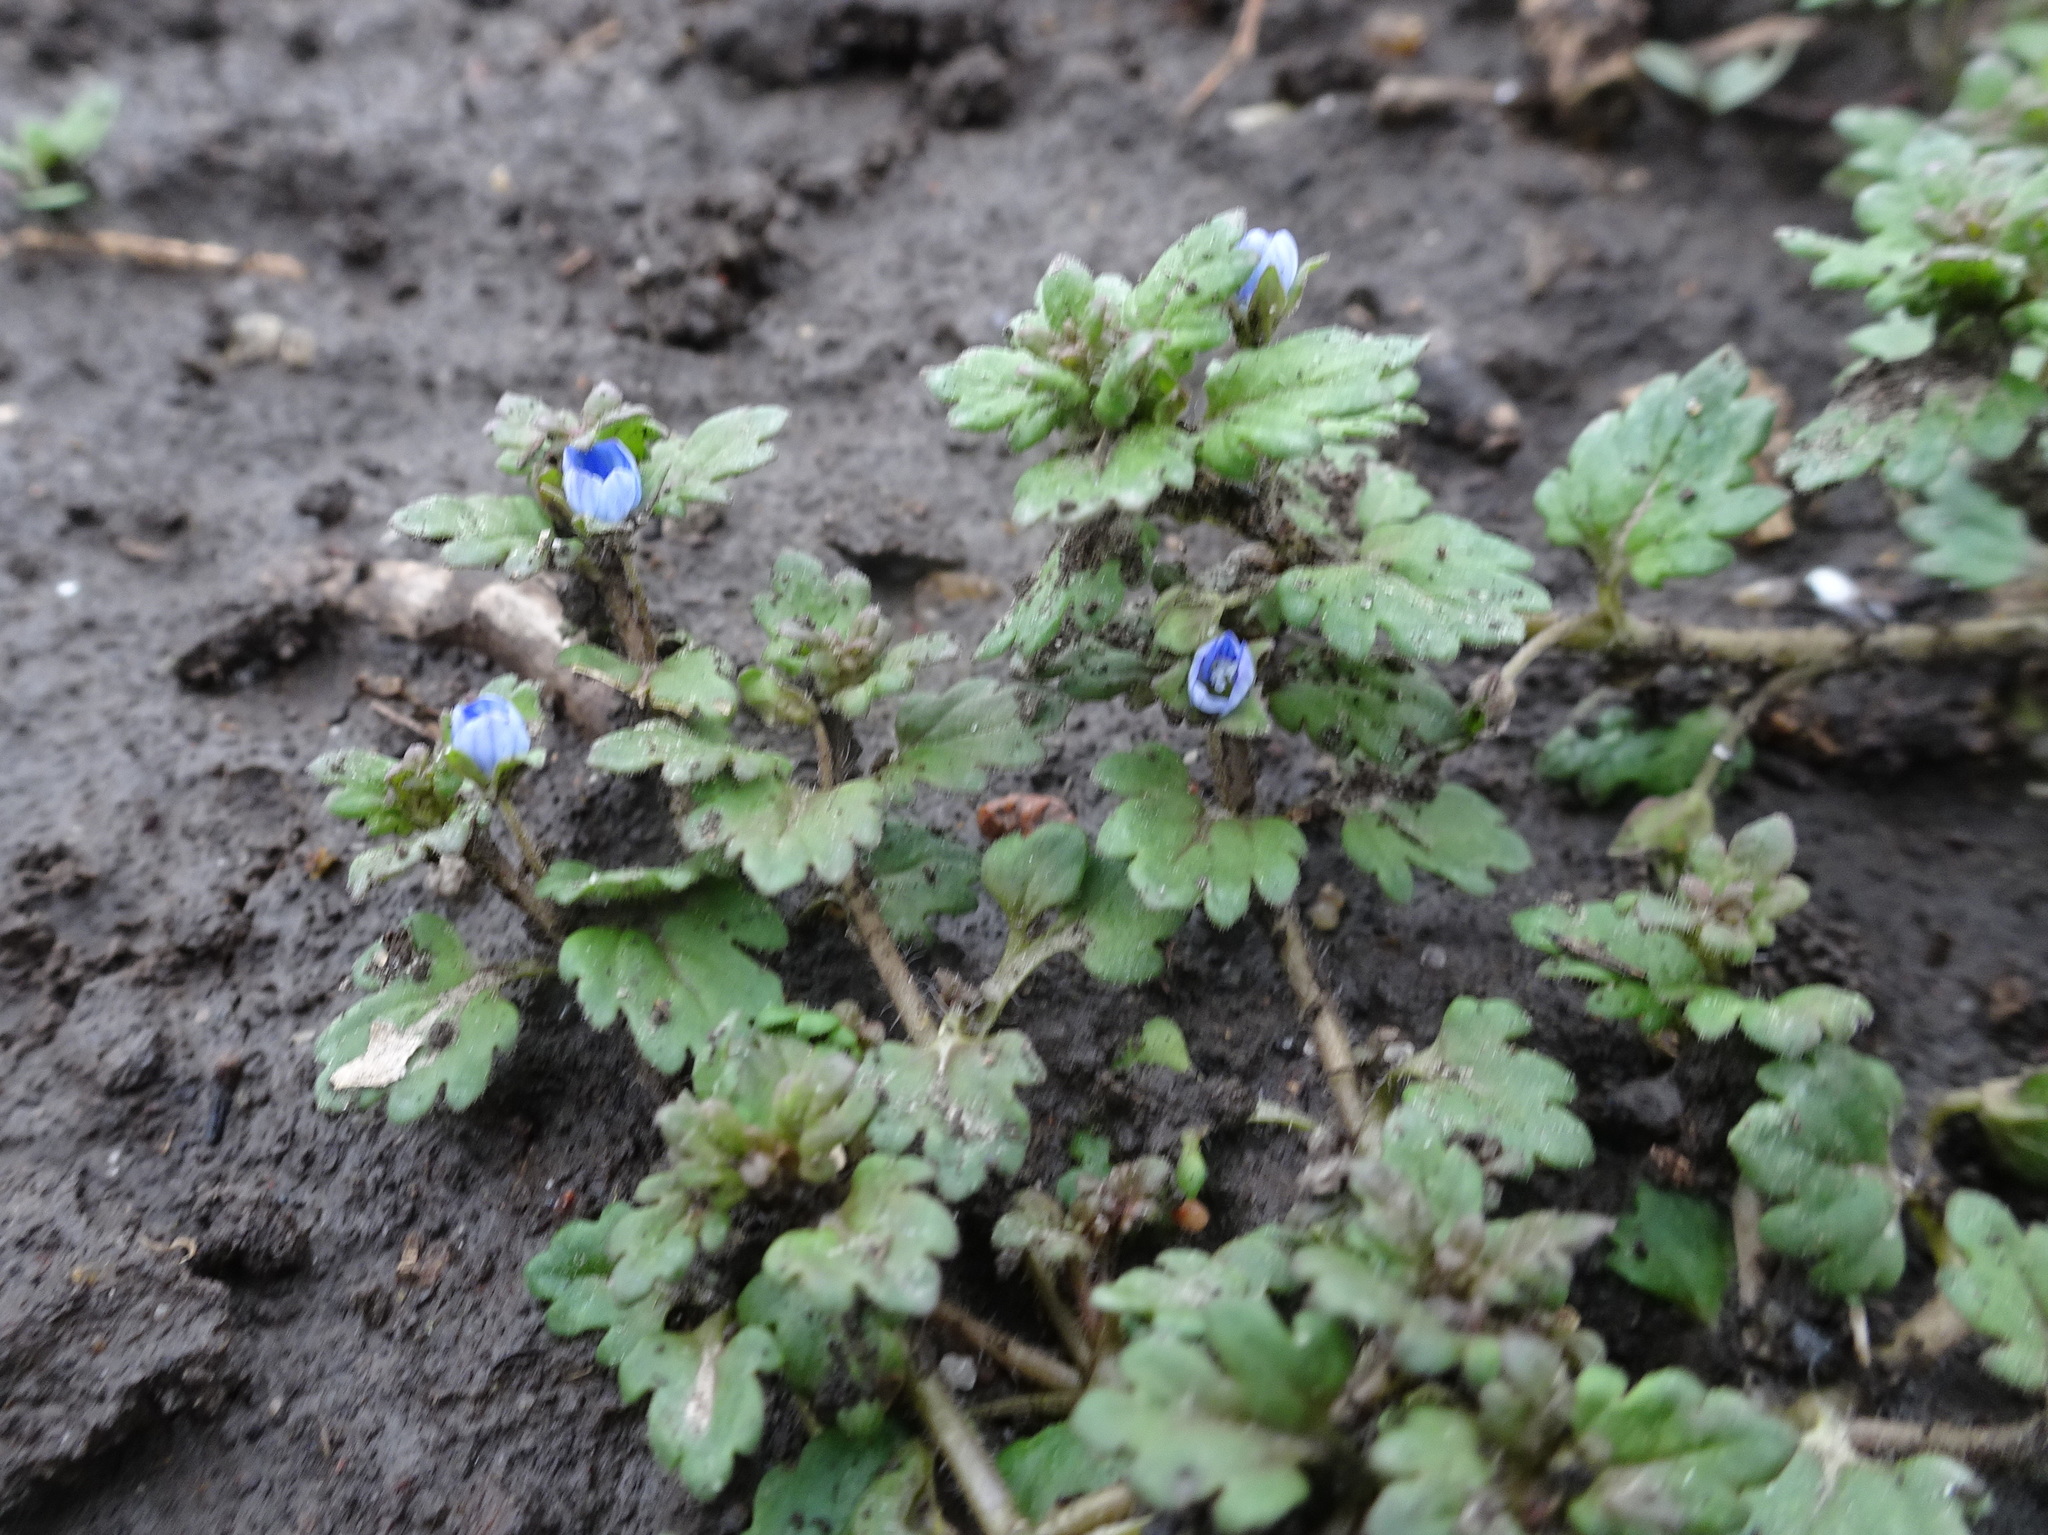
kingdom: Plantae
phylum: Tracheophyta
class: Magnoliopsida
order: Lamiales
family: Plantaginaceae
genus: Veronica
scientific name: Veronica polita
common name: Grey field-speedwell
